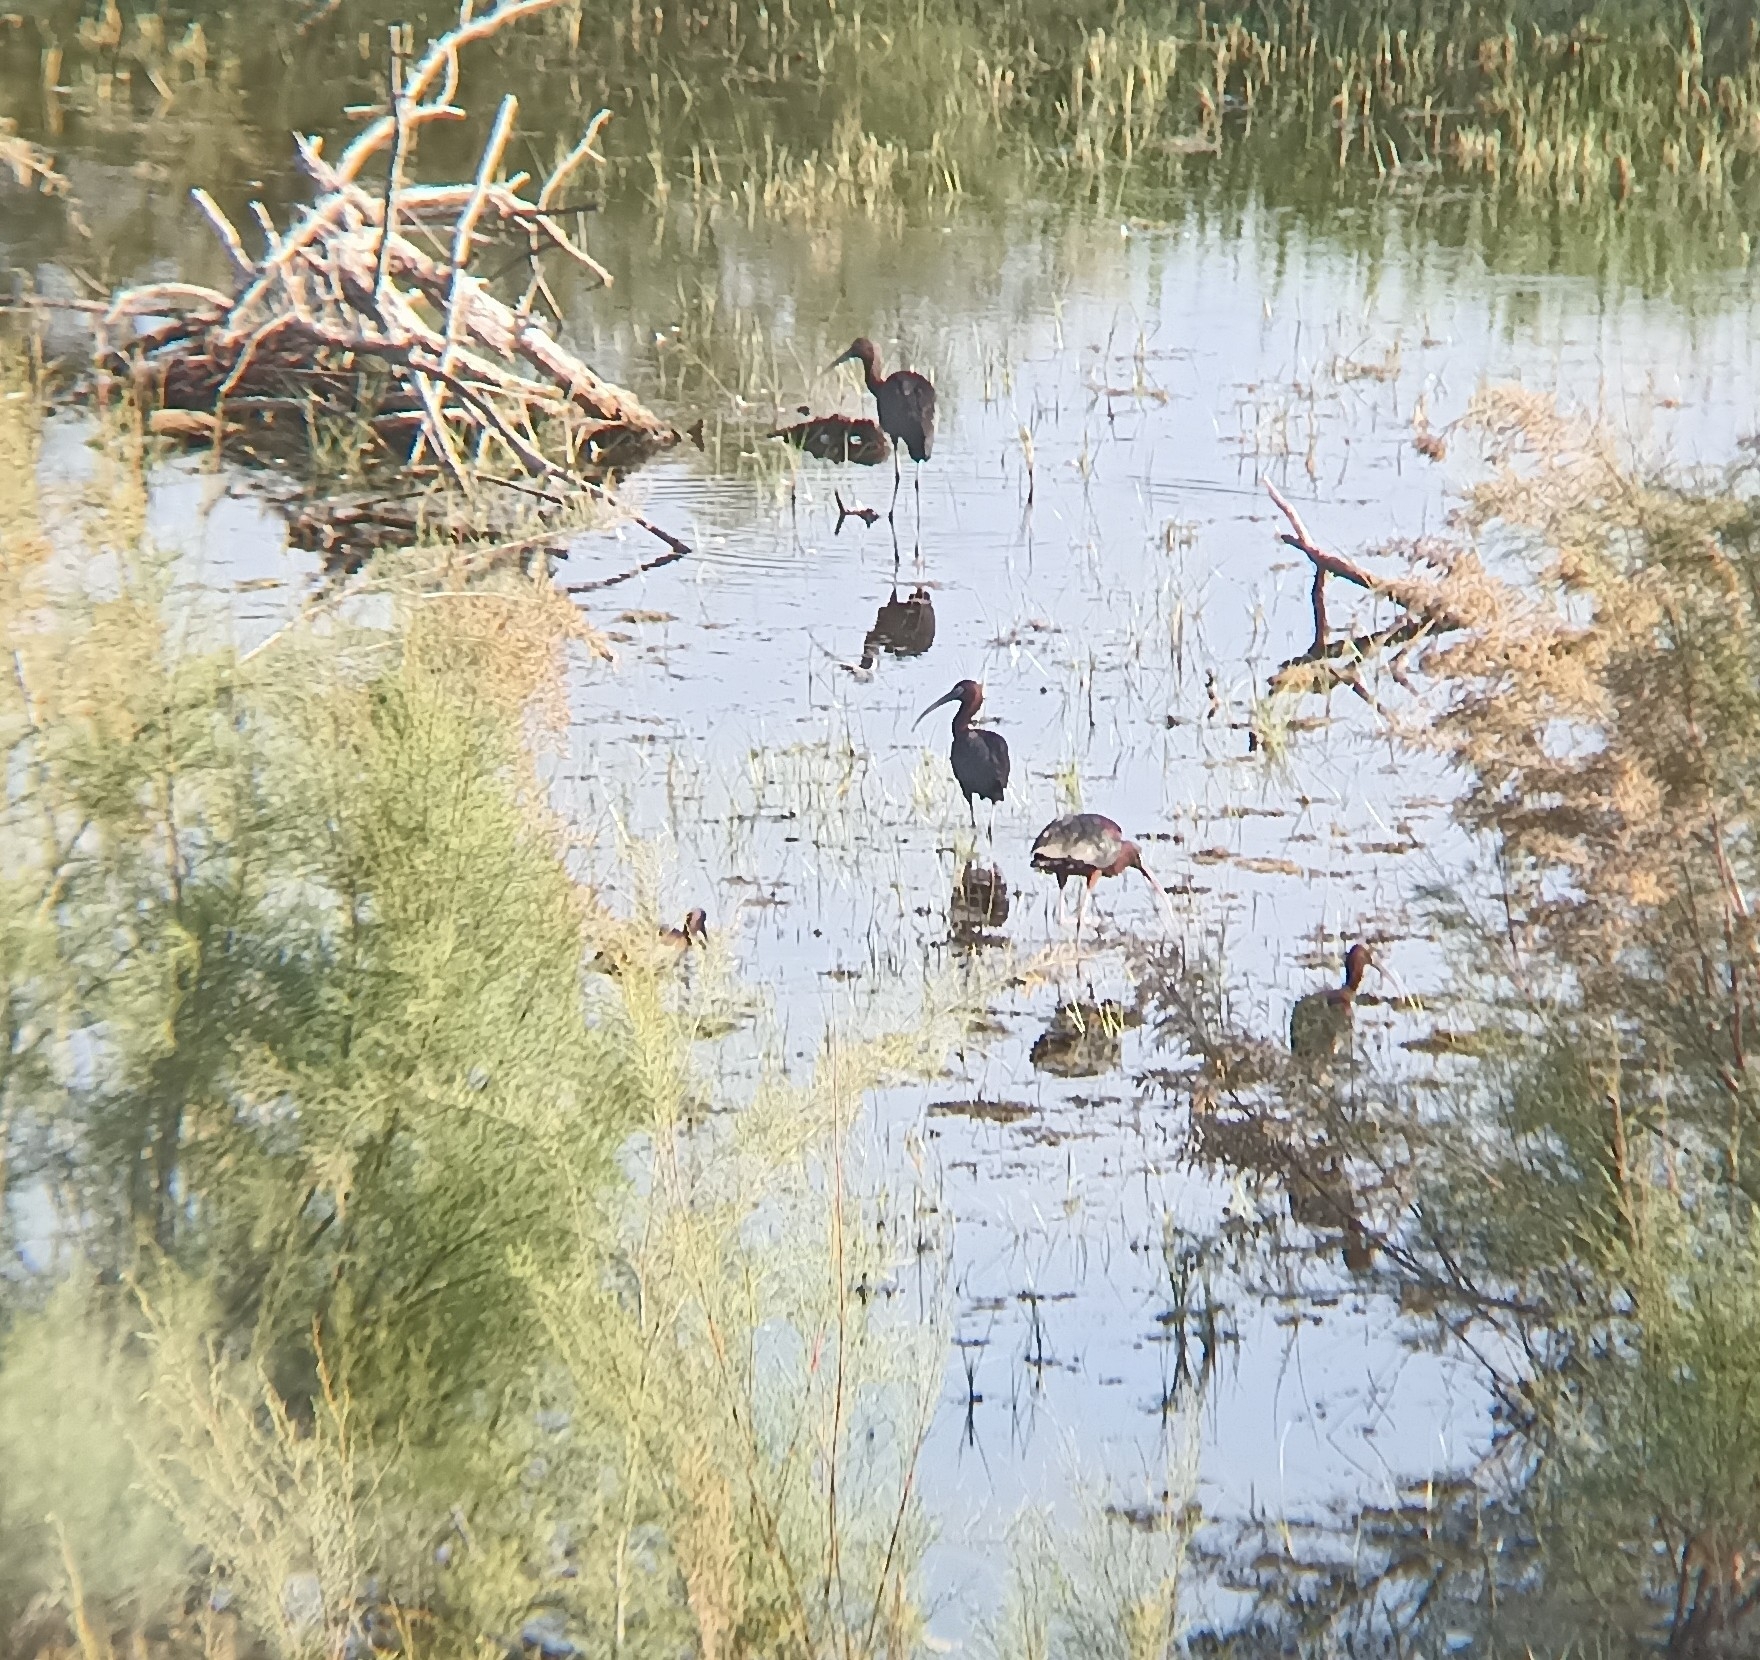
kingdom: Animalia
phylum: Chordata
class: Aves
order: Pelecaniformes
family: Threskiornithidae
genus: Plegadis
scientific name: Plegadis falcinellus
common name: Glossy ibis
